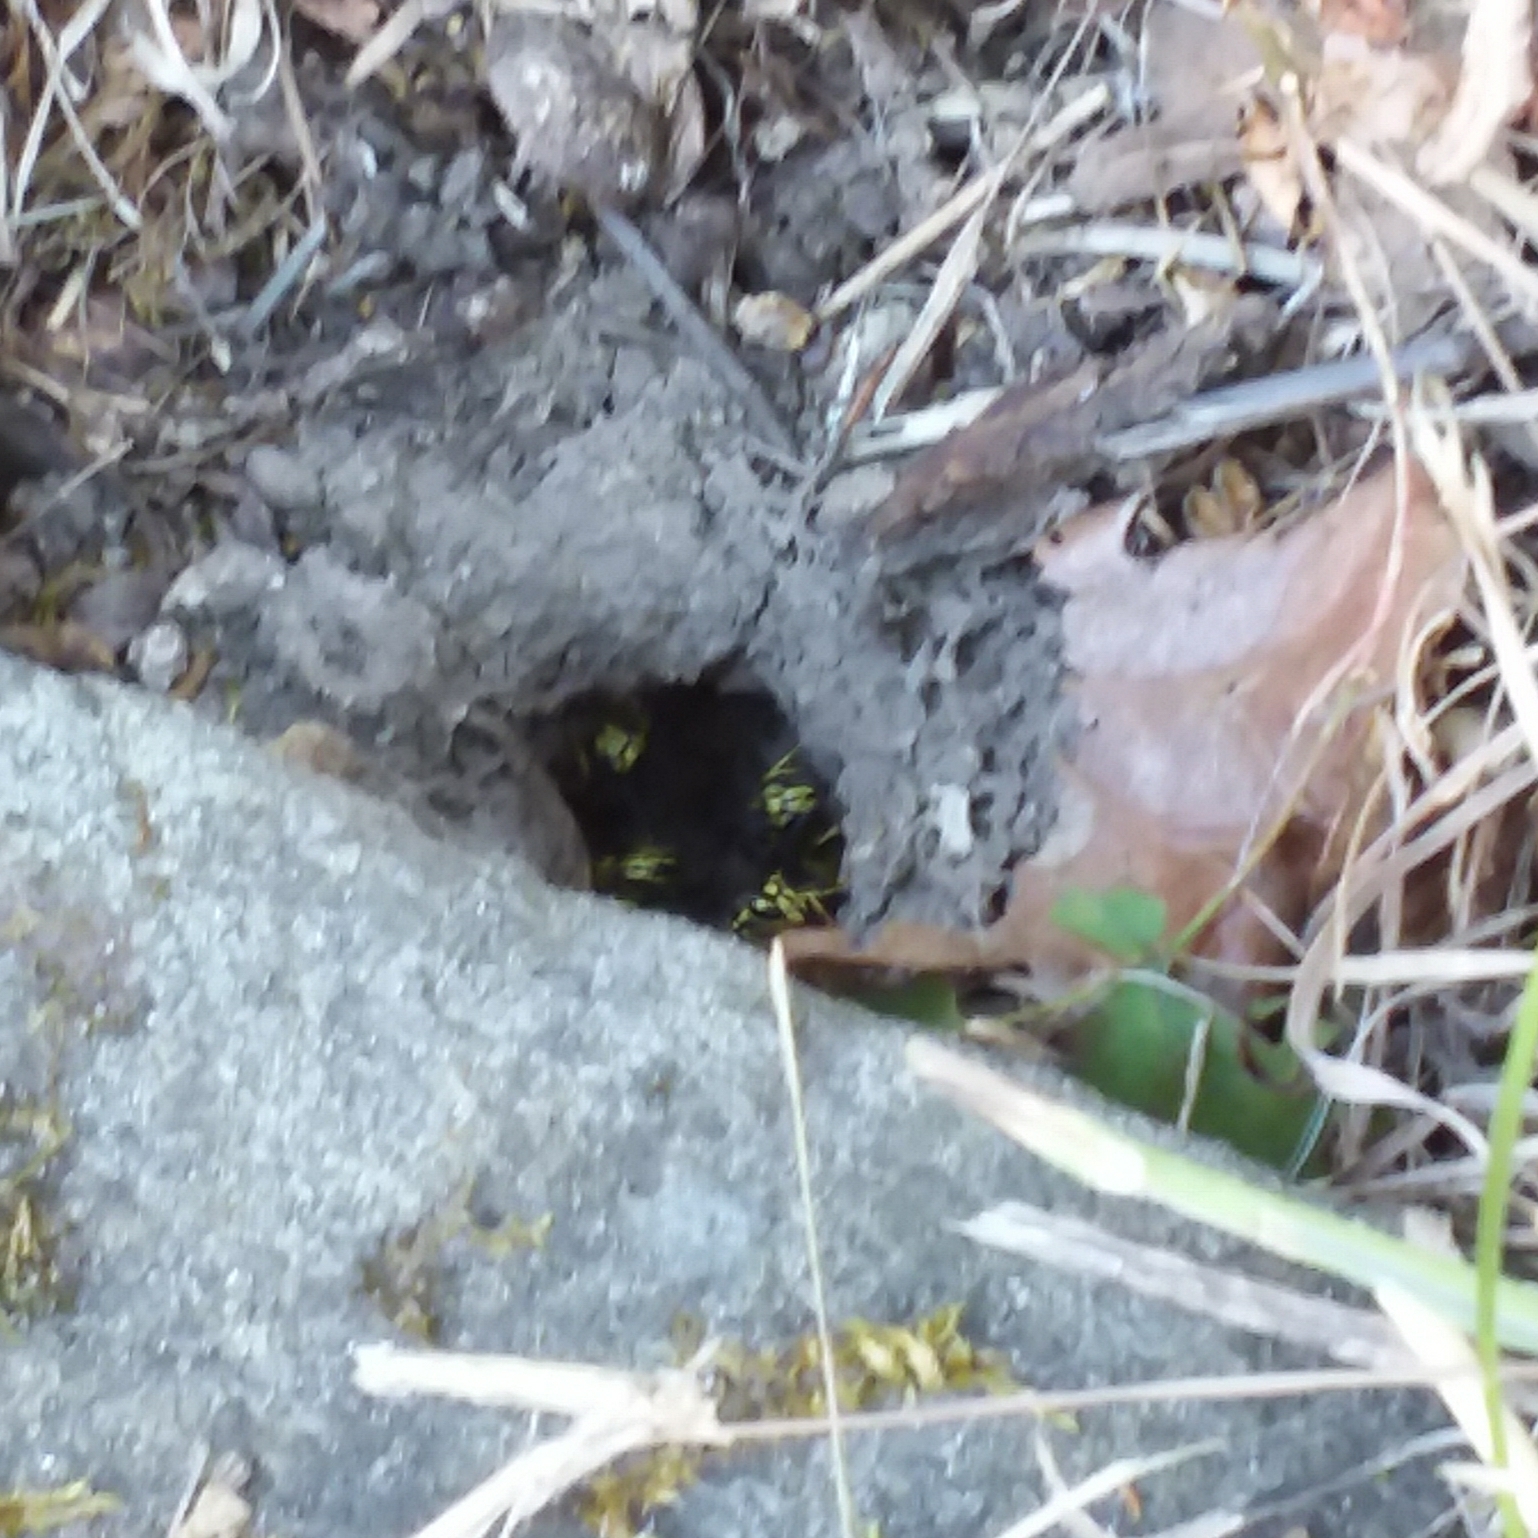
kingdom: Animalia
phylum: Arthropoda
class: Insecta
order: Hymenoptera
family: Vespidae
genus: Vespula
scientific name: Vespula pensylvanica
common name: Western yellowjacket
